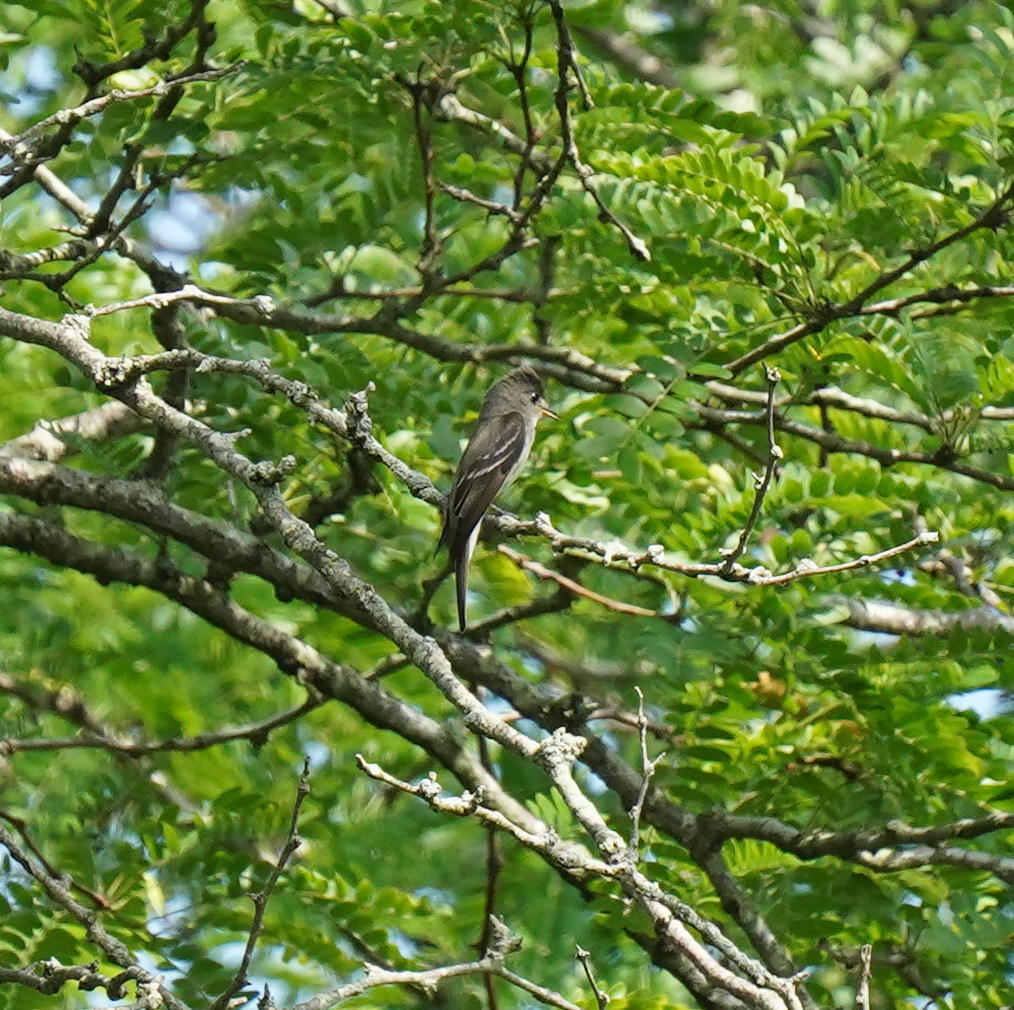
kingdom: Animalia
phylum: Chordata
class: Aves
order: Passeriformes
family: Tyrannidae
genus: Contopus
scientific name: Contopus virens
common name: Eastern wood-pewee
